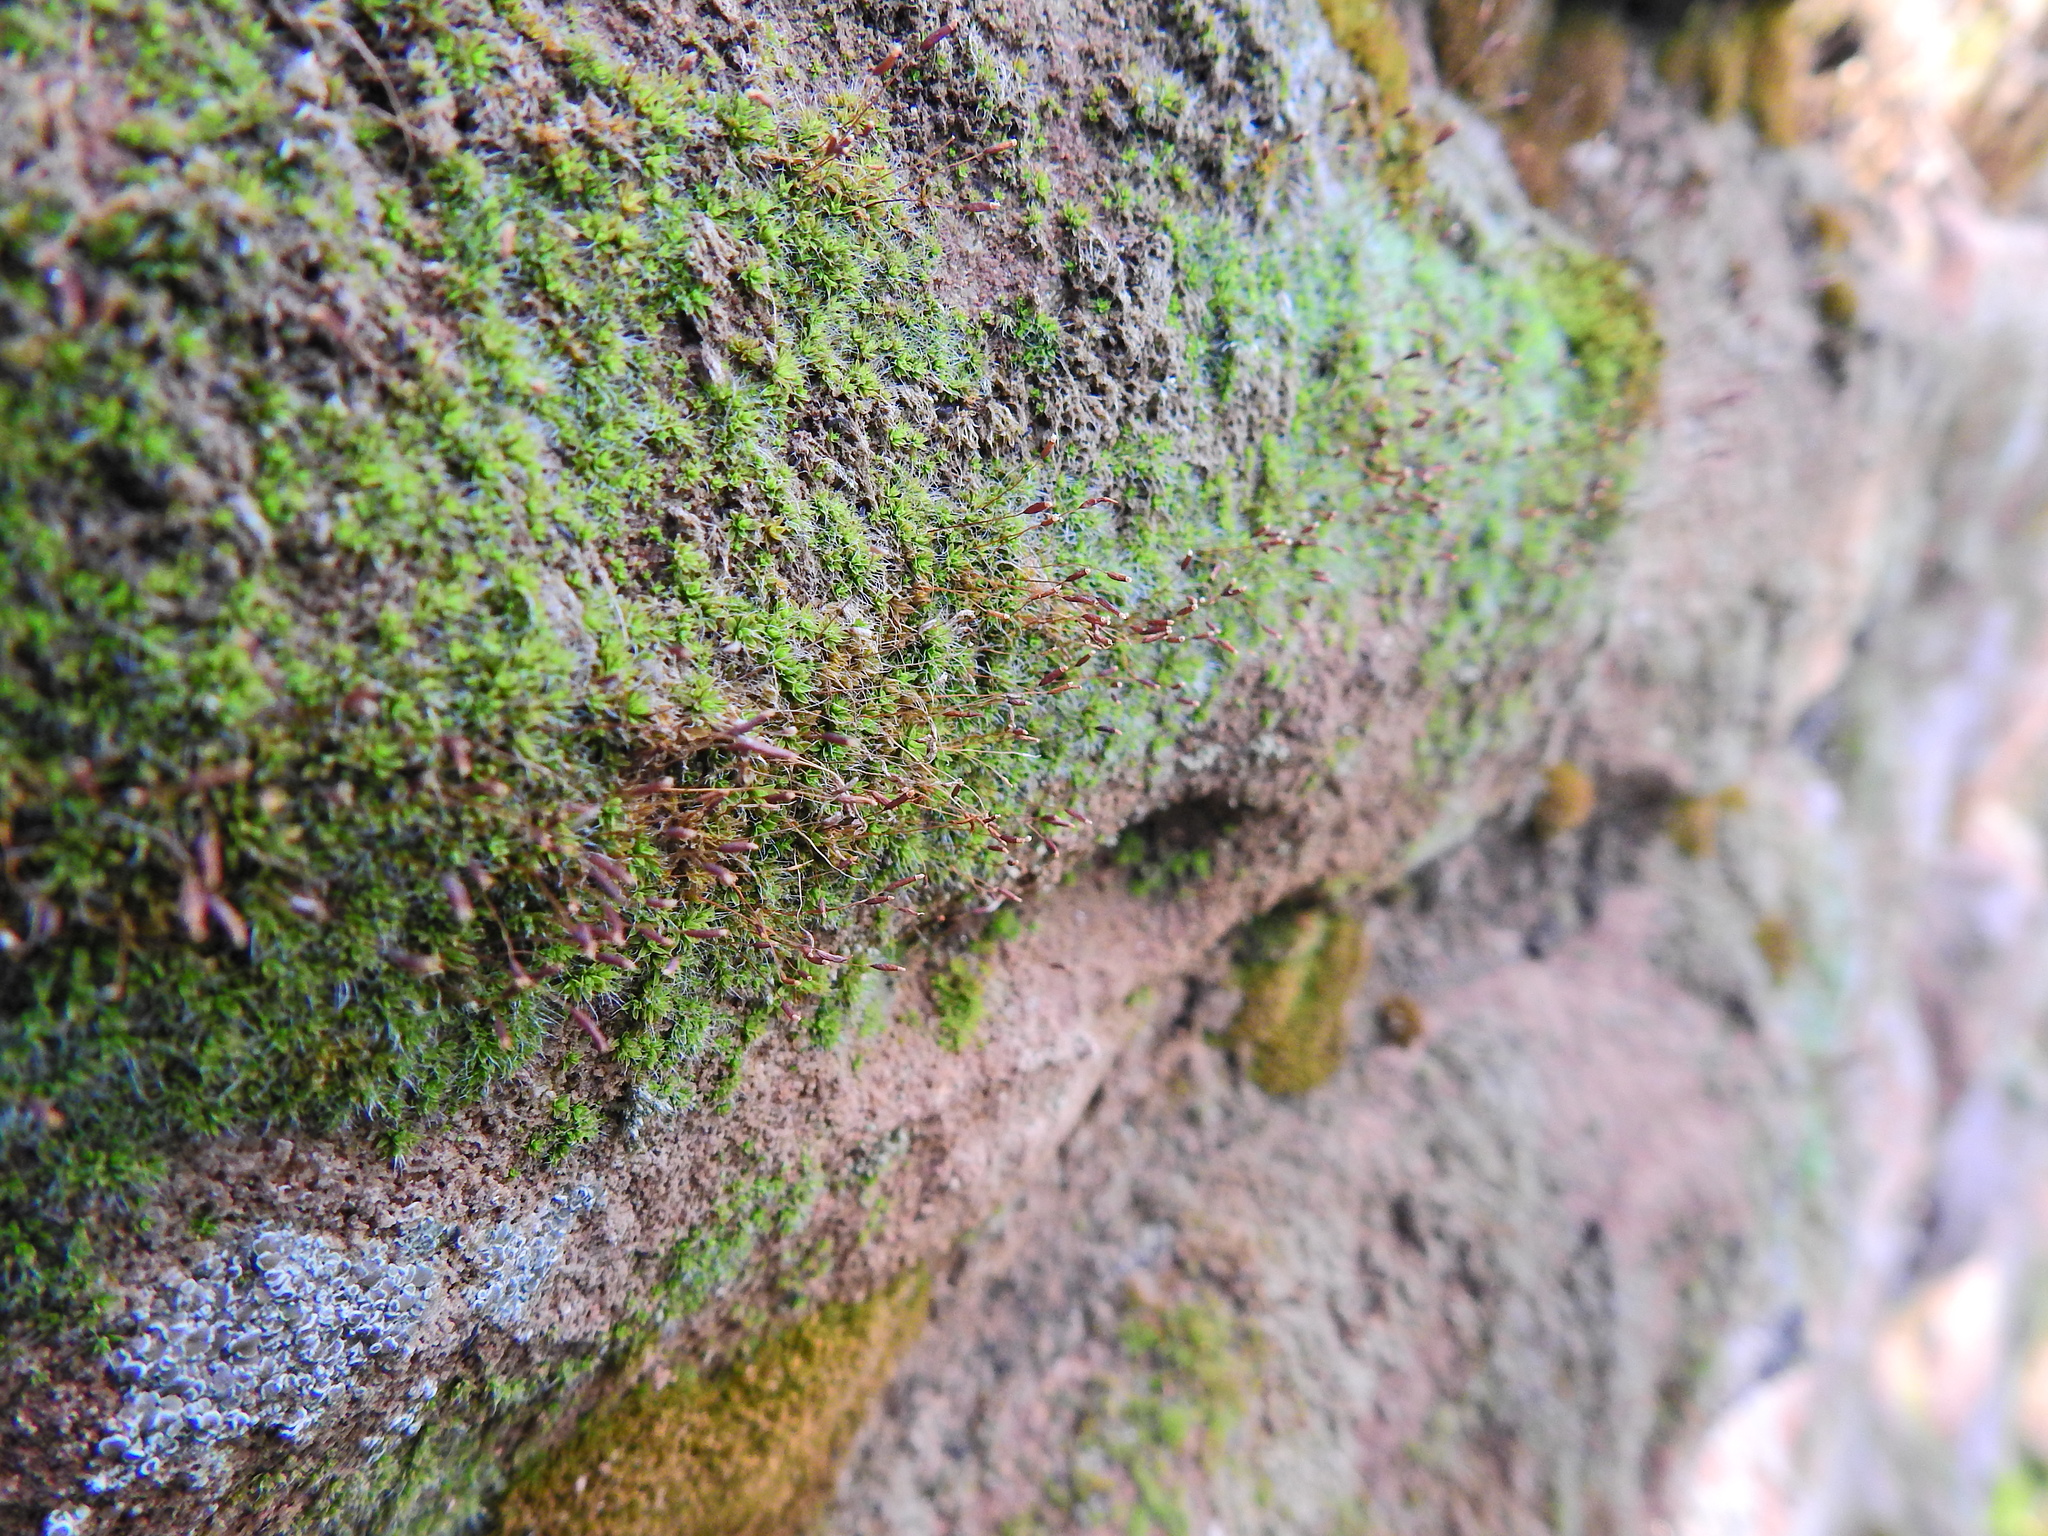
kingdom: Plantae
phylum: Bryophyta
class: Bryopsida
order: Pottiales
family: Pottiaceae
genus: Tortula
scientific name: Tortula muralis
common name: Wall screw-moss
